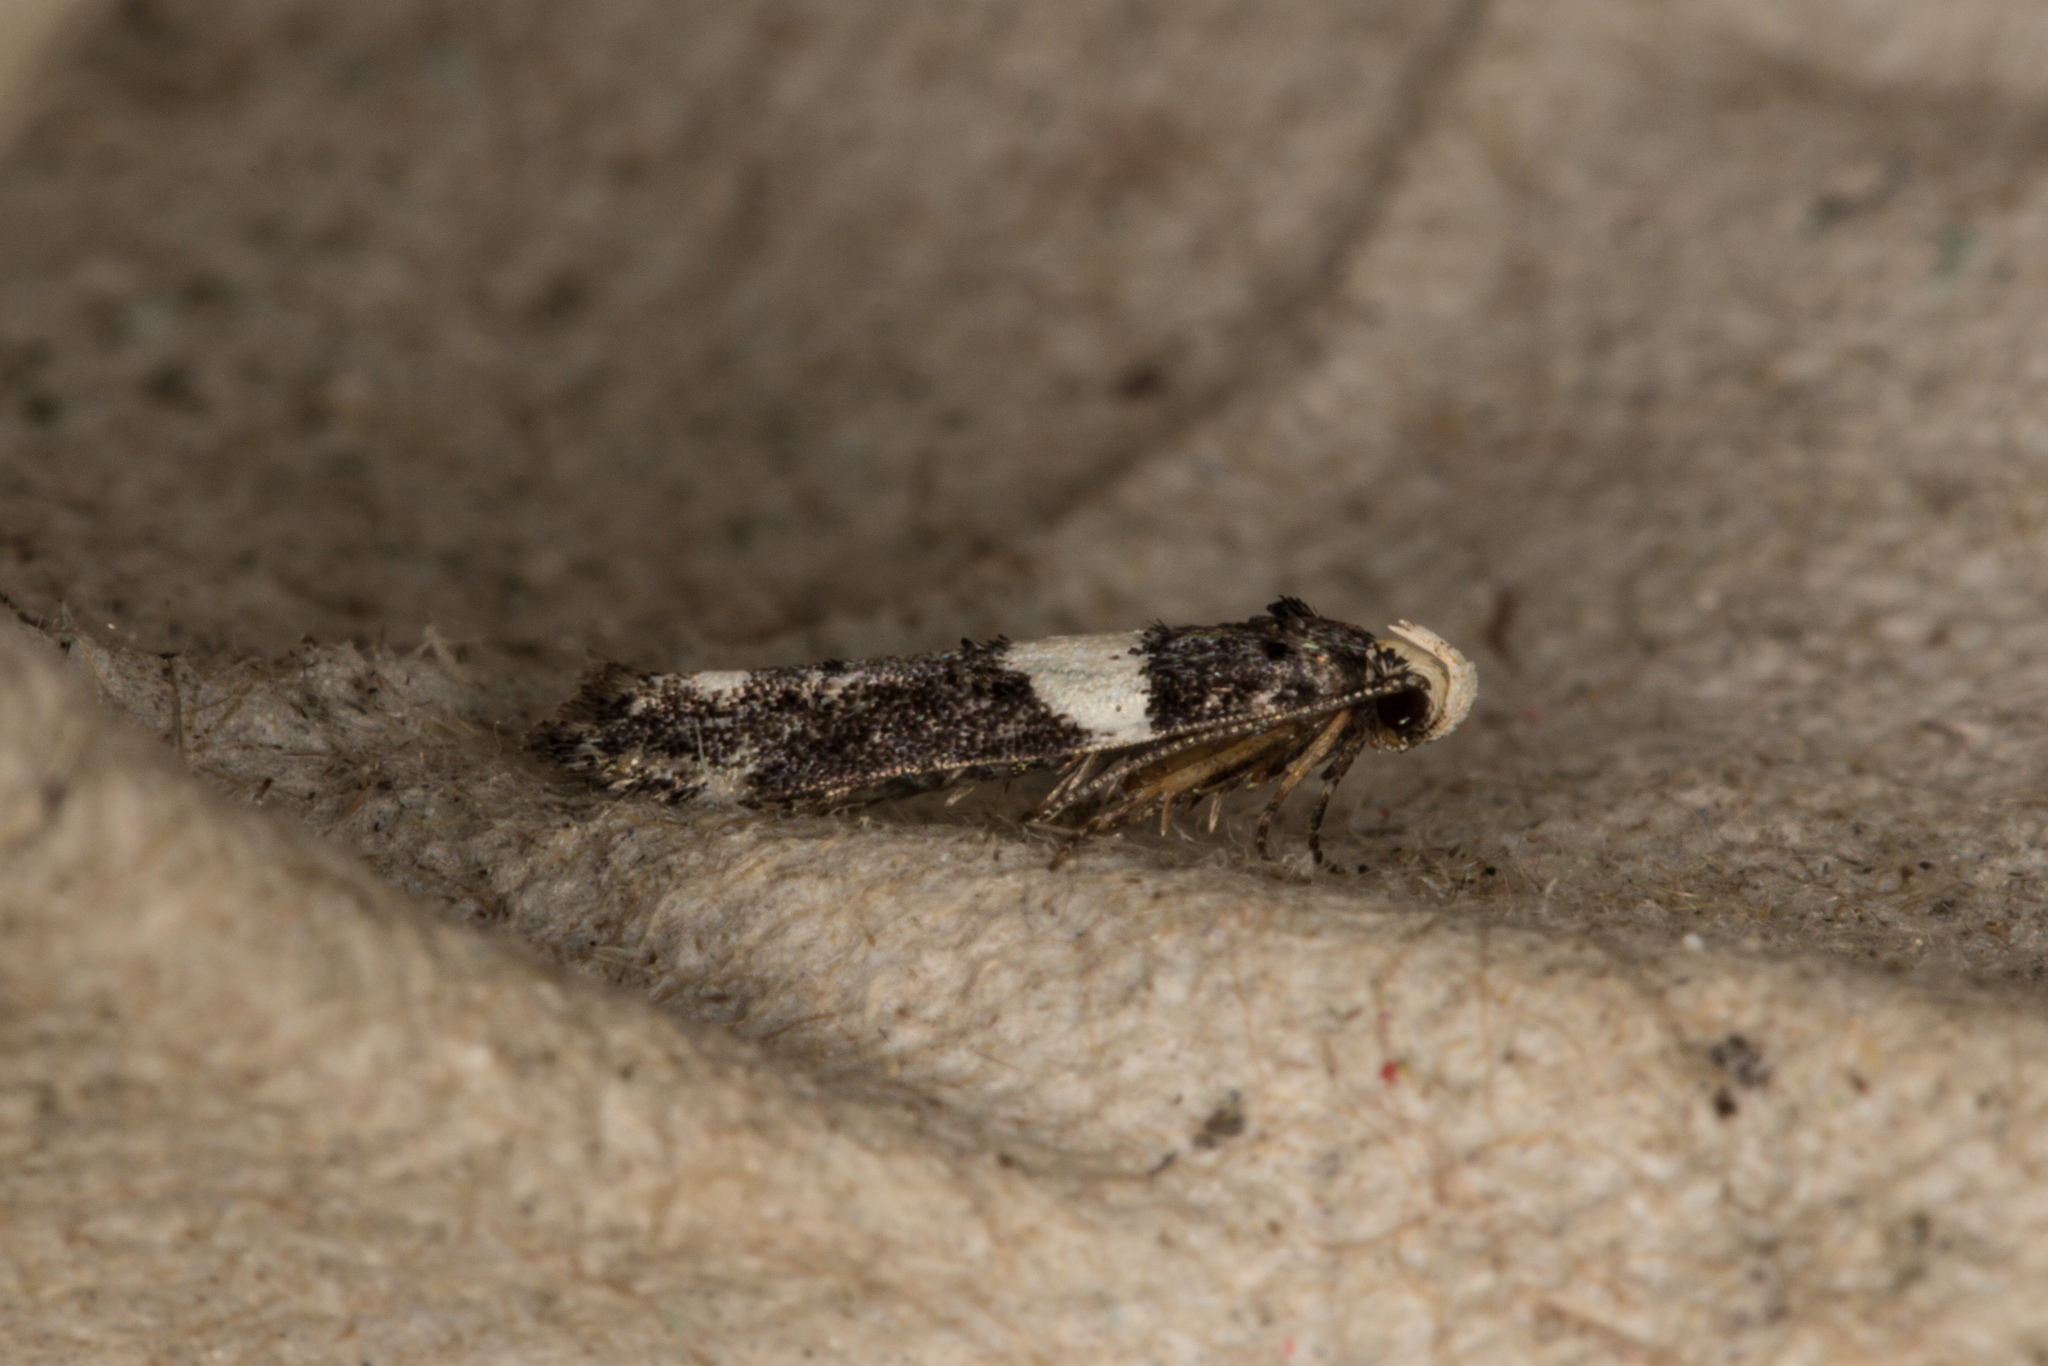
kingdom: Animalia
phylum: Arthropoda
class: Insecta
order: Lepidoptera
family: Gelechiidae
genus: Recurvaria
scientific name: Recurvaria leucatella
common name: White-barred groundling
